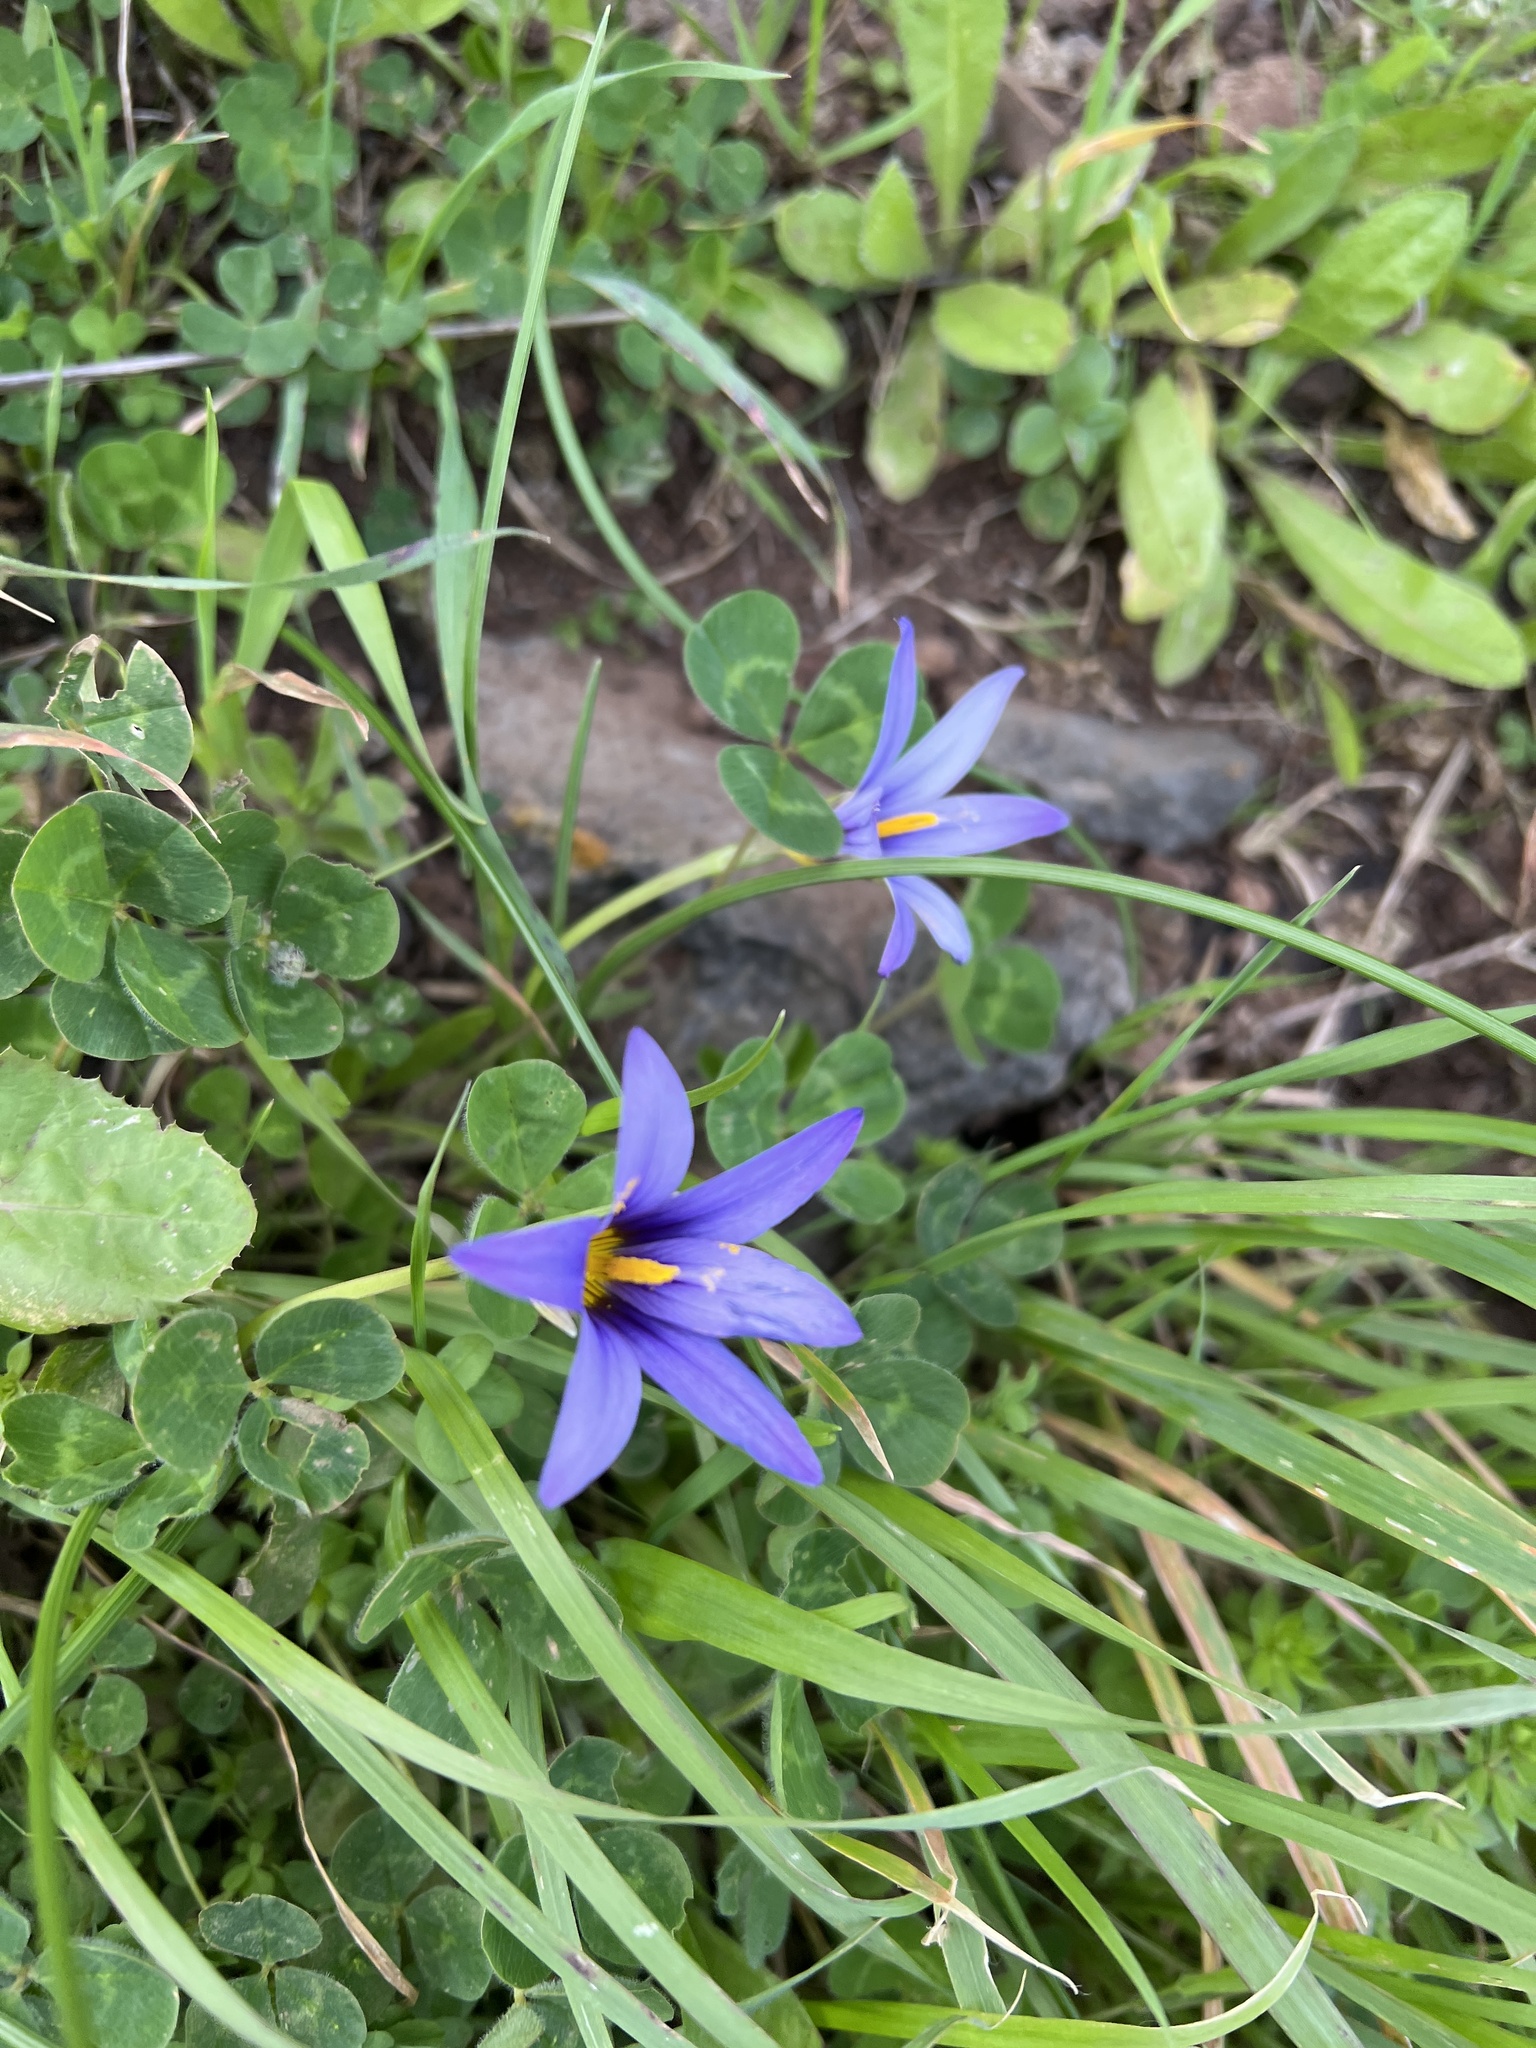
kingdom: Plantae
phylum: Tracheophyta
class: Liliopsida
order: Asparagales
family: Iridaceae
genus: Romulea
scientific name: Romulea columnae
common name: Sand-crocus
